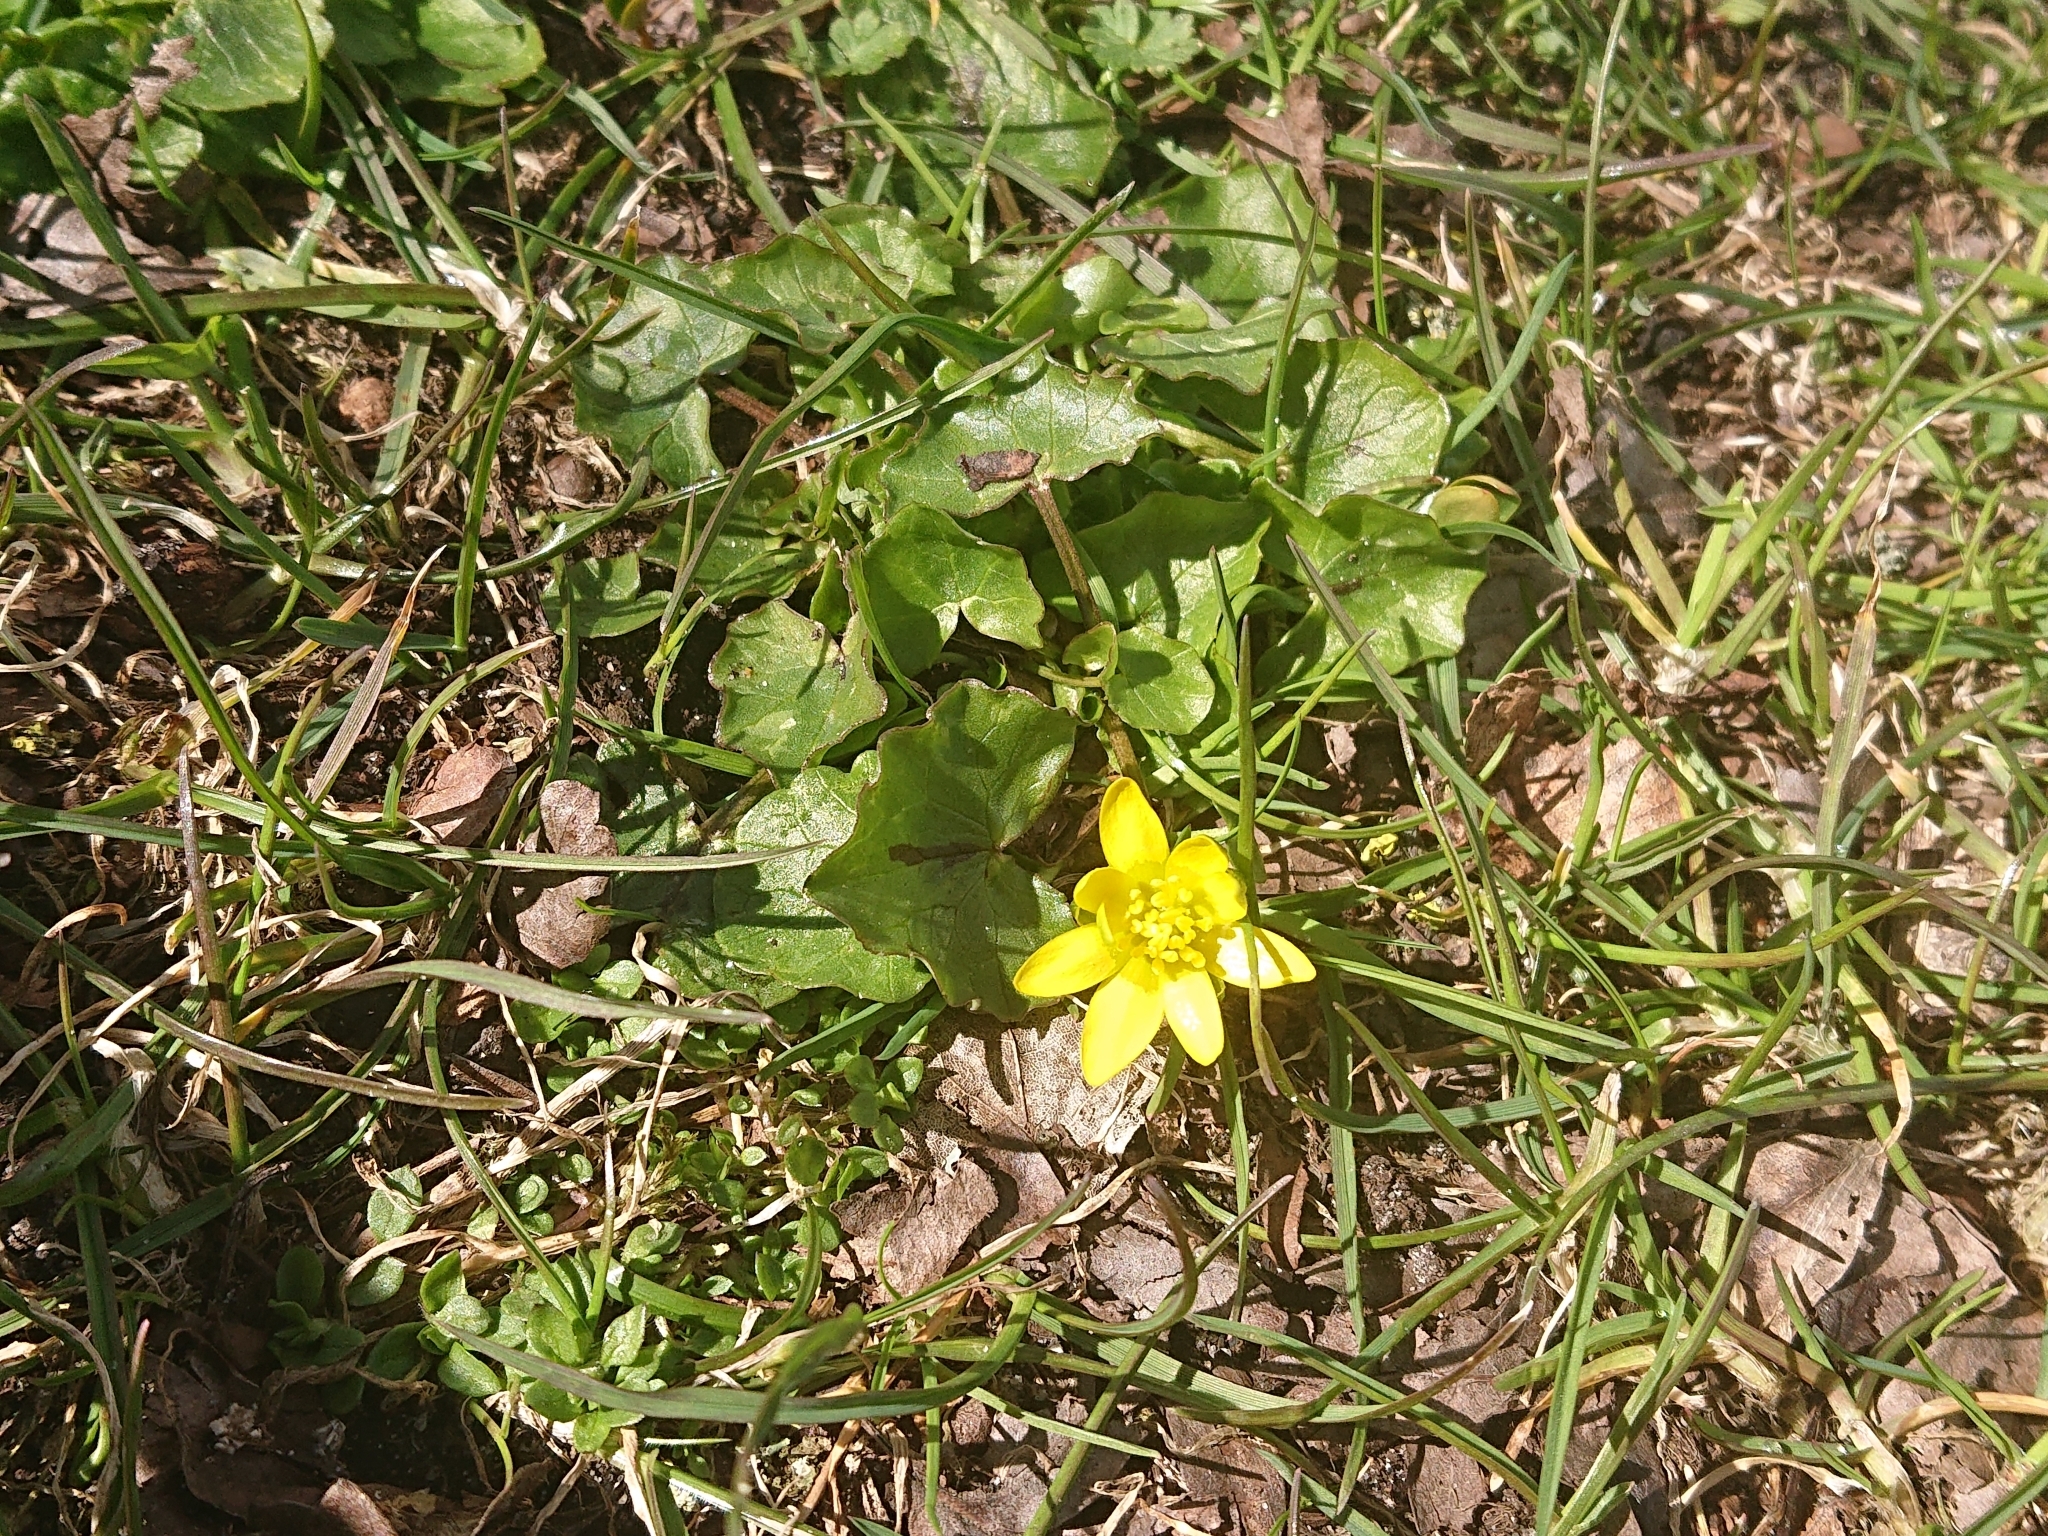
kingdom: Plantae
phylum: Tracheophyta
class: Magnoliopsida
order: Ranunculales
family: Ranunculaceae
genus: Ficaria
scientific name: Ficaria verna
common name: Lesser celandine
